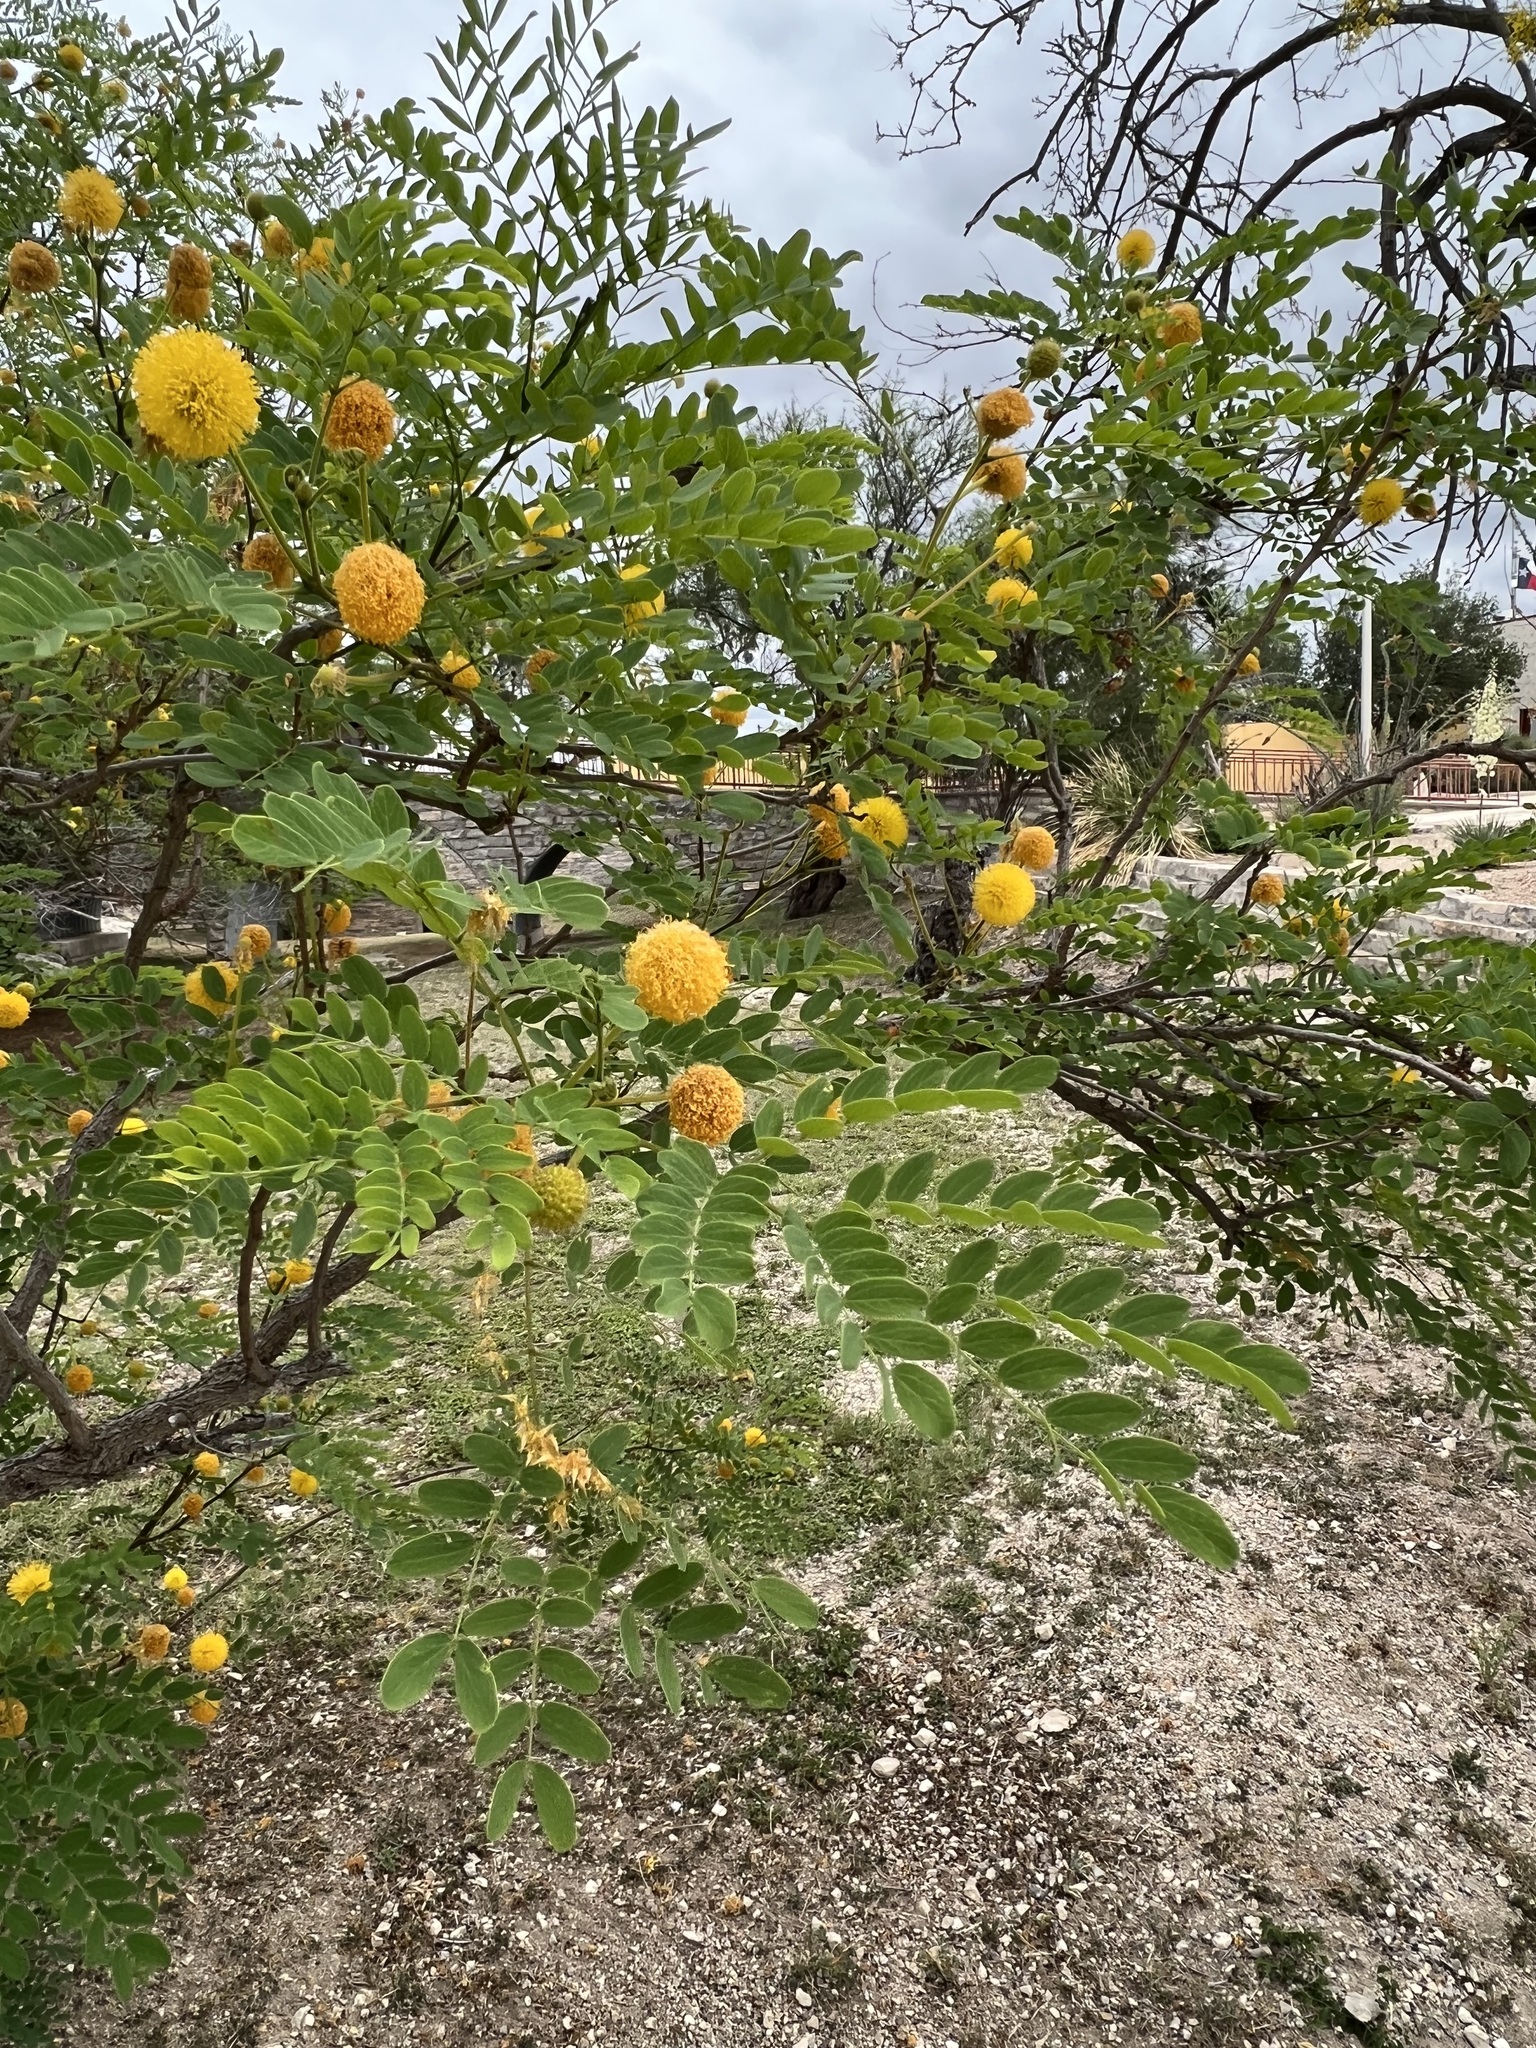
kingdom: Plantae
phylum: Tracheophyta
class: Magnoliopsida
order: Fabales
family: Fabaceae
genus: Leucaena
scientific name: Leucaena retusa
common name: Littleleaf leadtree
